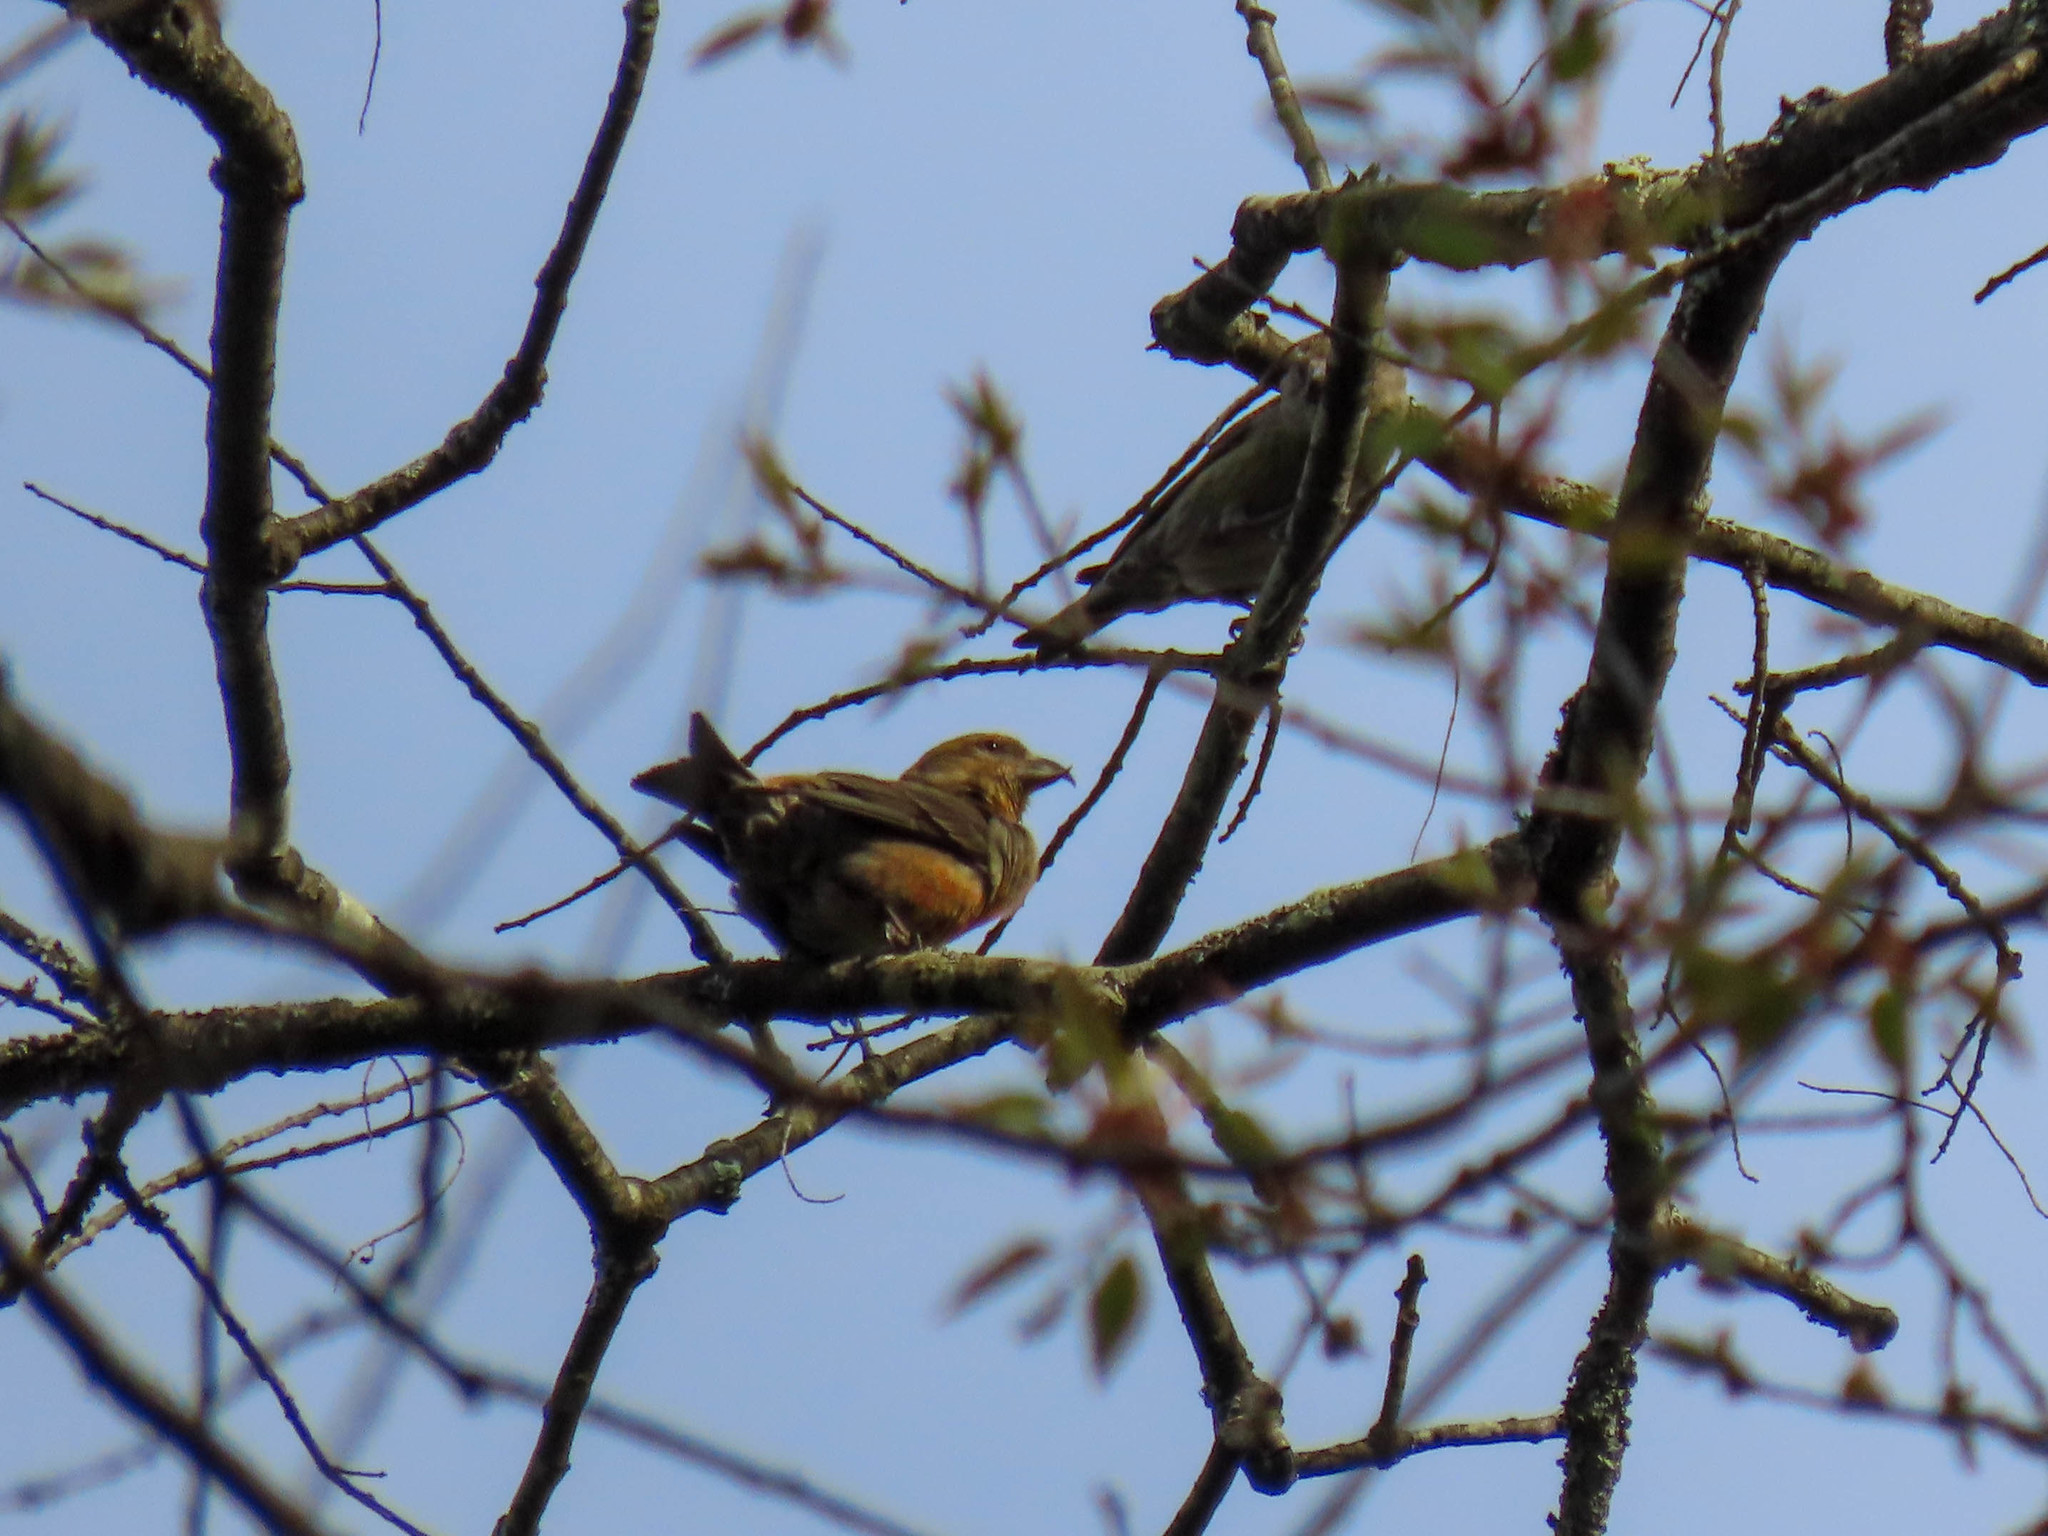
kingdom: Animalia
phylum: Chordata
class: Aves
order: Passeriformes
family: Fringillidae
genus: Loxia
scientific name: Loxia curvirostra
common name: Red crossbill
